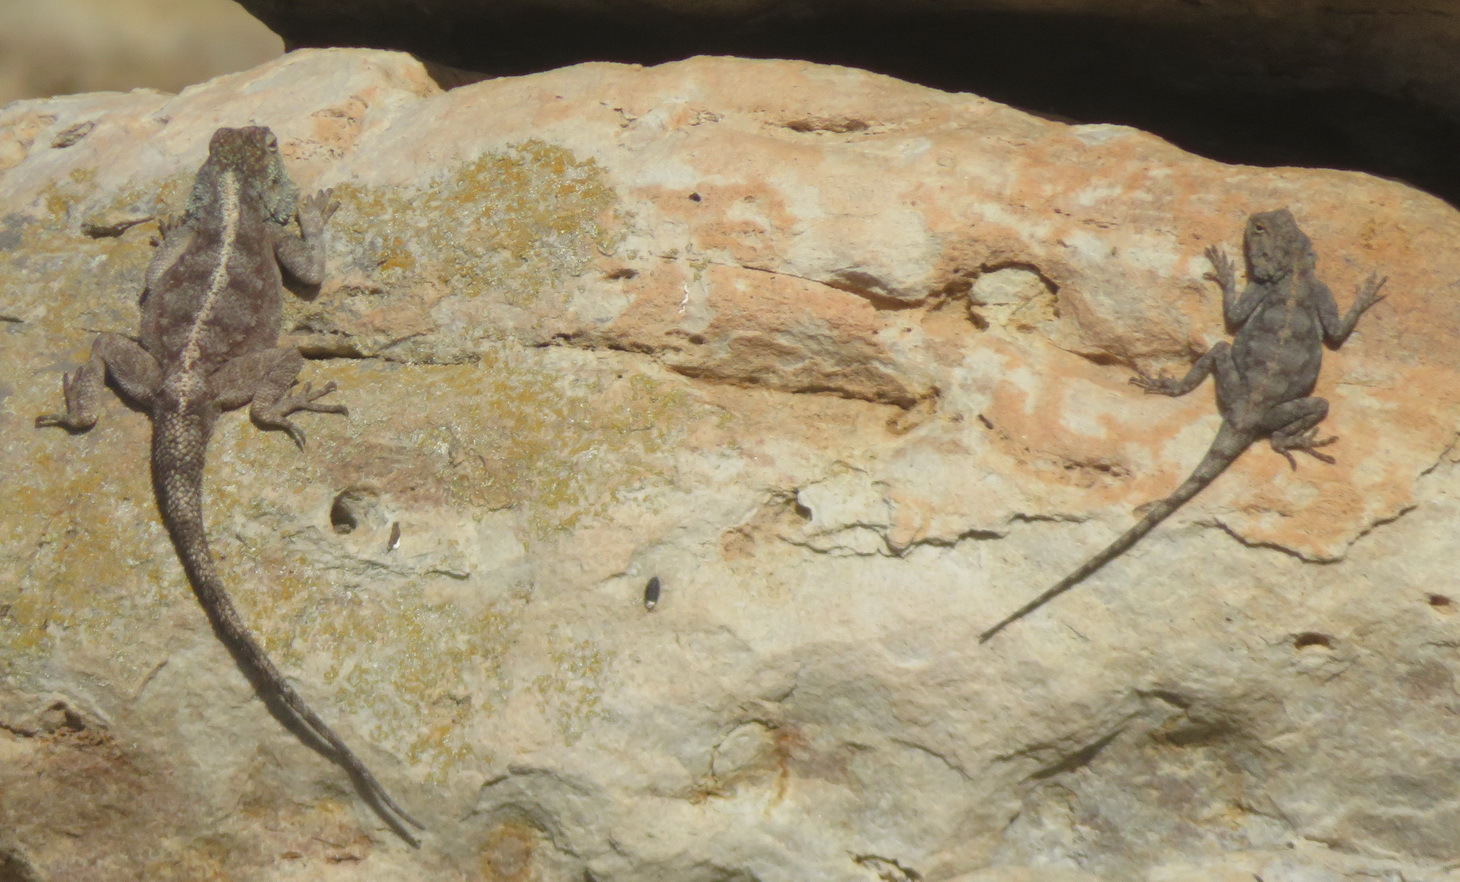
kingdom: Animalia
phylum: Chordata
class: Squamata
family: Agamidae
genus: Agama
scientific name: Agama atra
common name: Southern african rock agama
